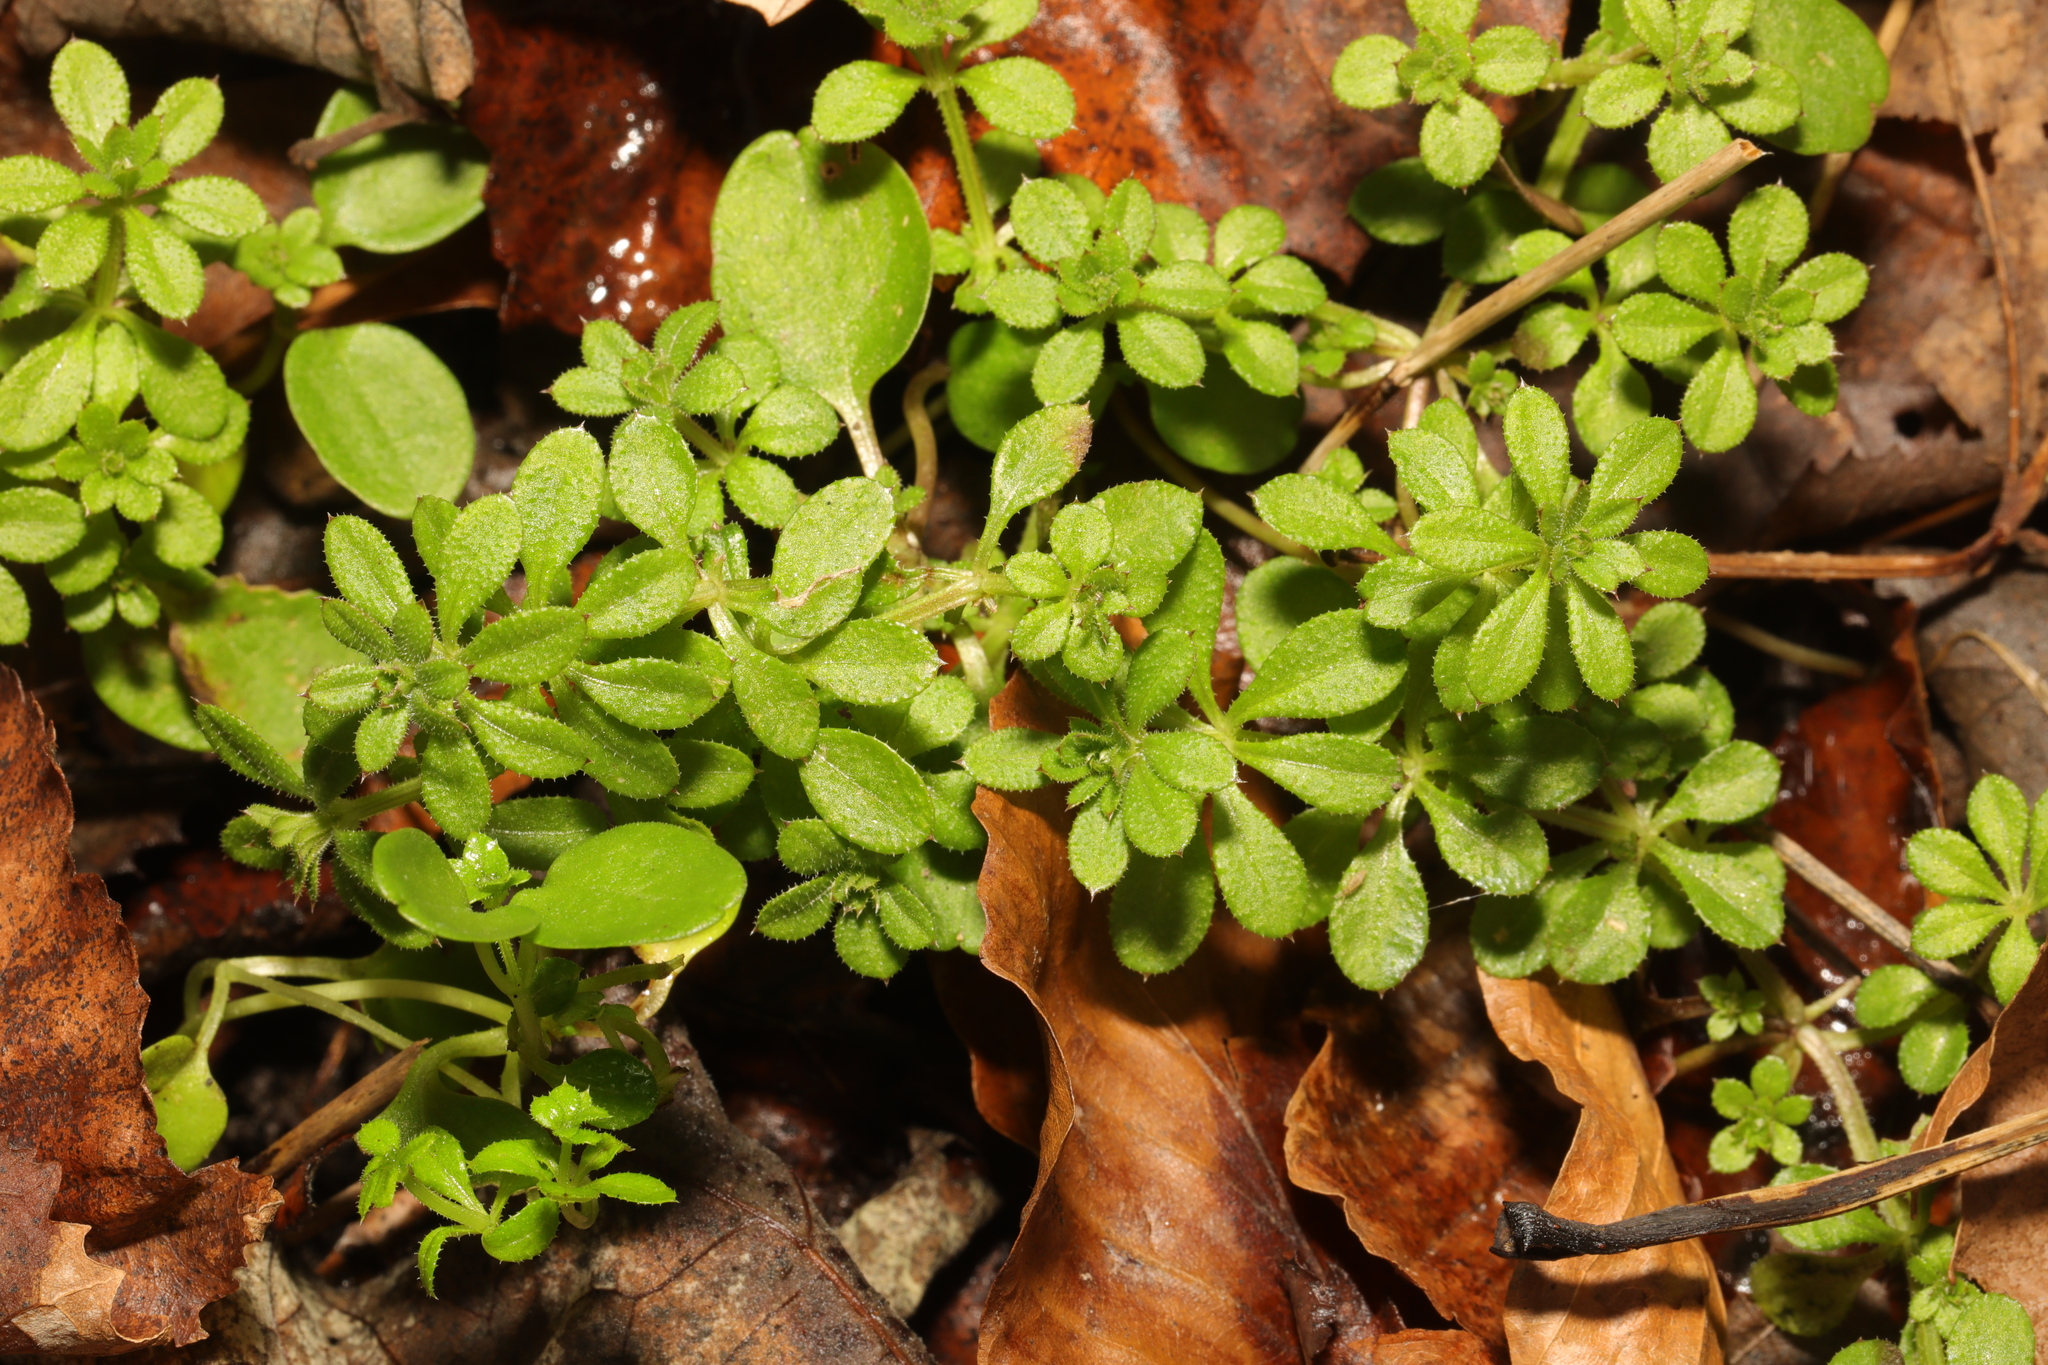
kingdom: Plantae
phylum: Tracheophyta
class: Magnoliopsida
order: Gentianales
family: Rubiaceae
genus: Galium
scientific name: Galium aparine
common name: Cleavers
